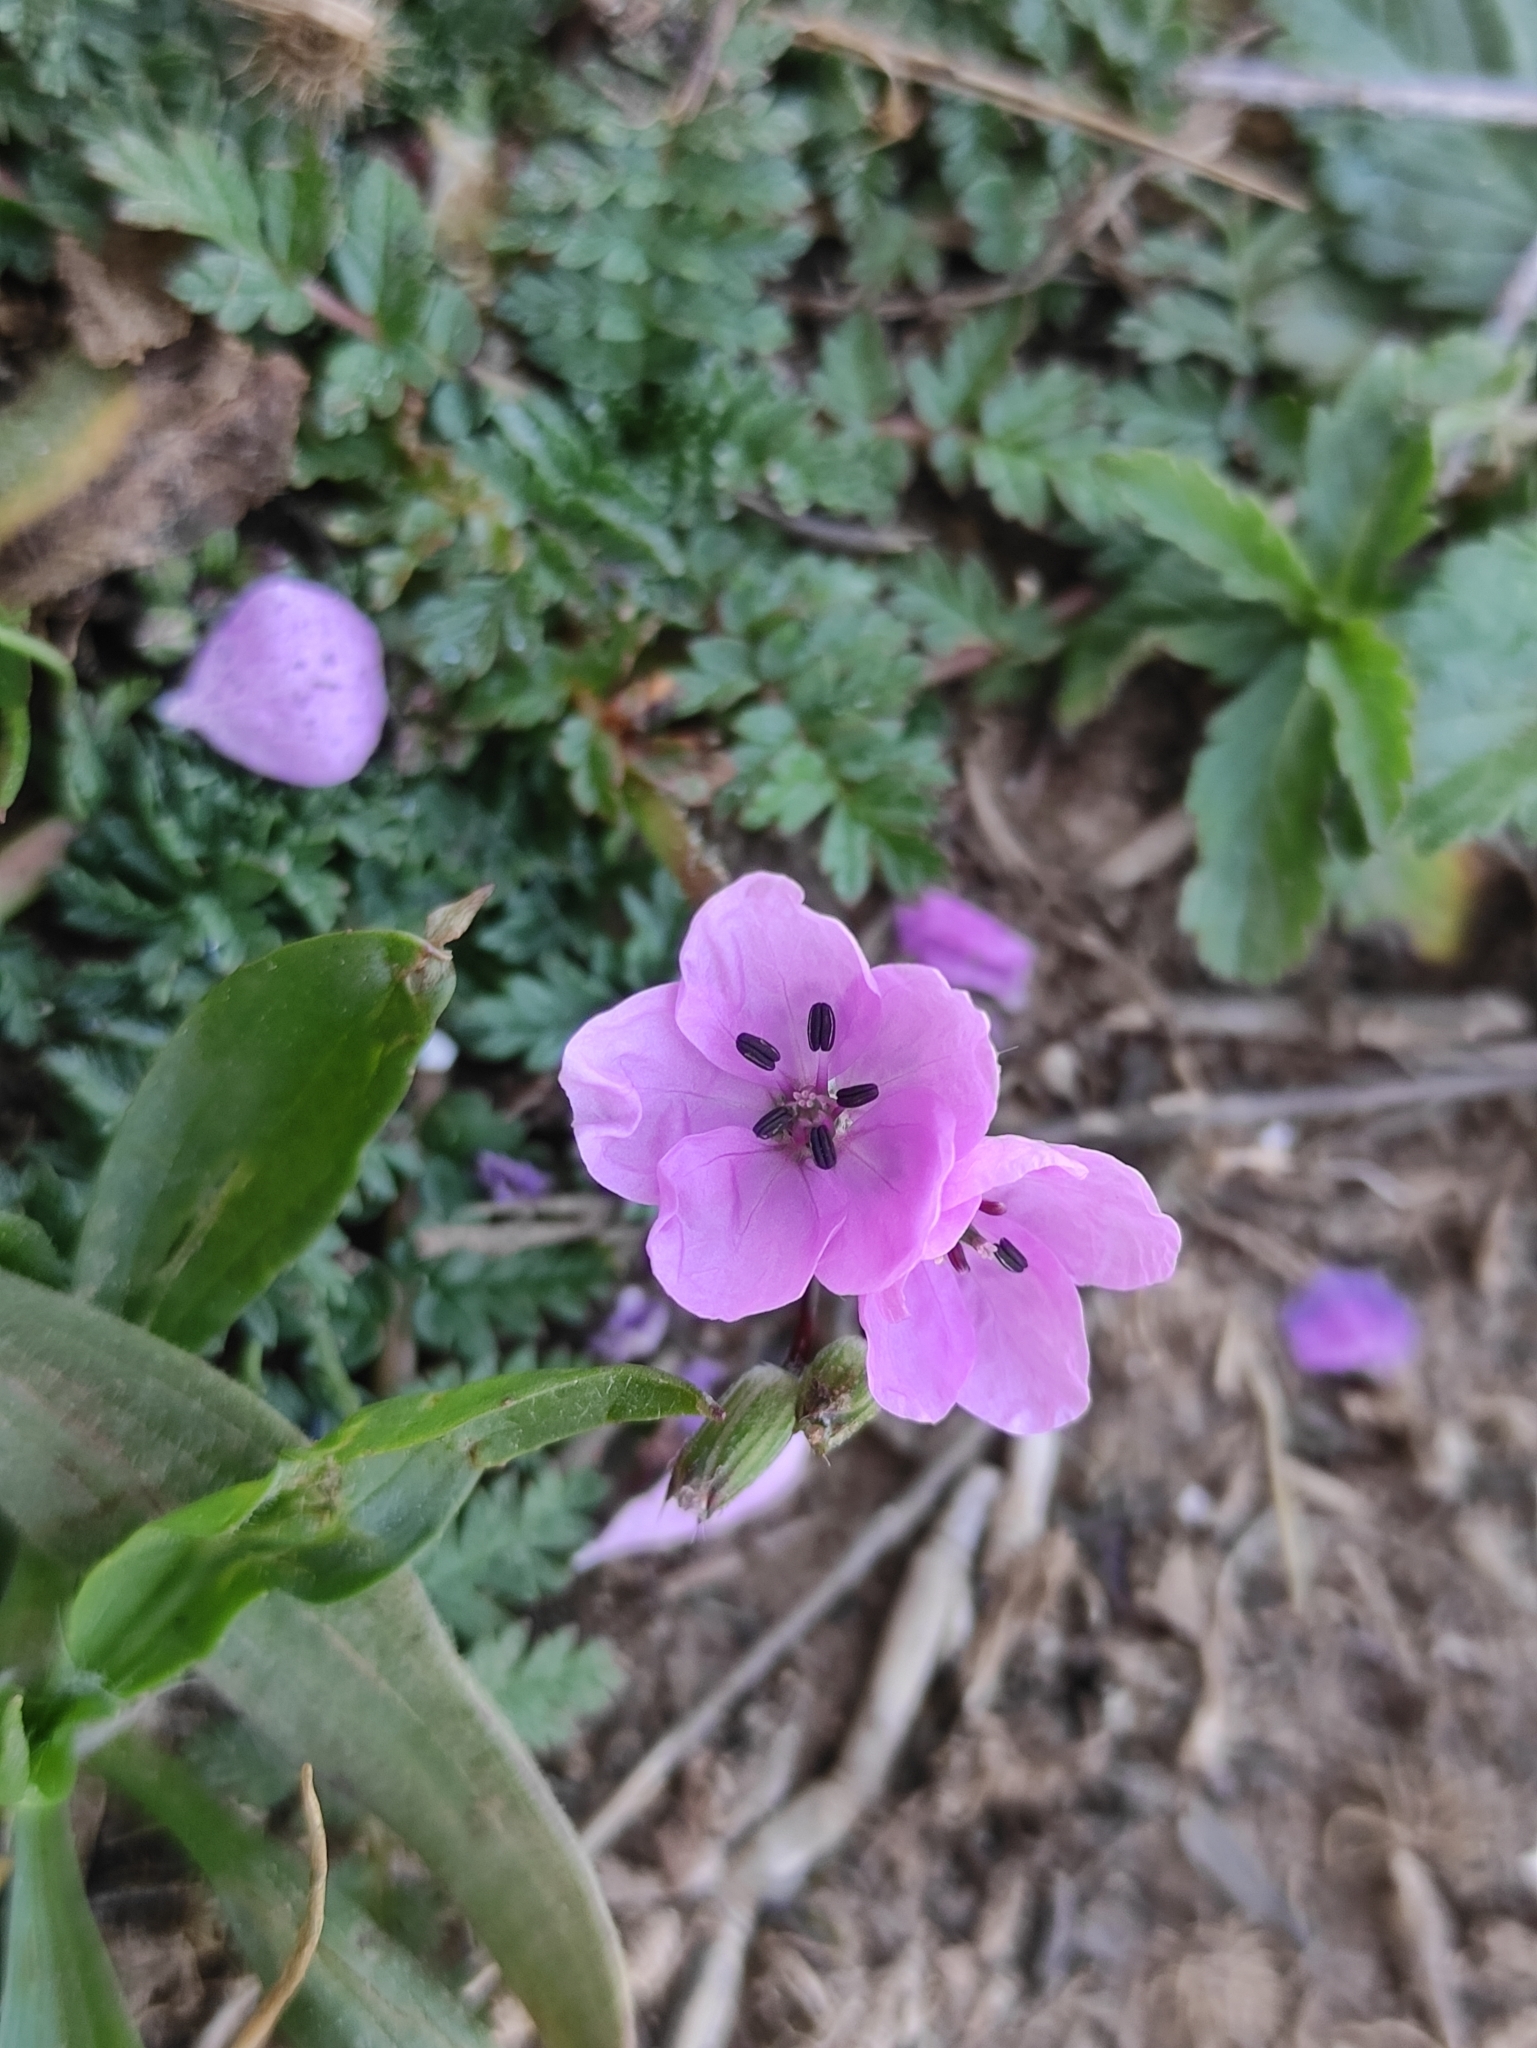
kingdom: Plantae
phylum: Tracheophyta
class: Magnoliopsida
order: Geraniales
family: Geraniaceae
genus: Erodium
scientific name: Erodium acaule
